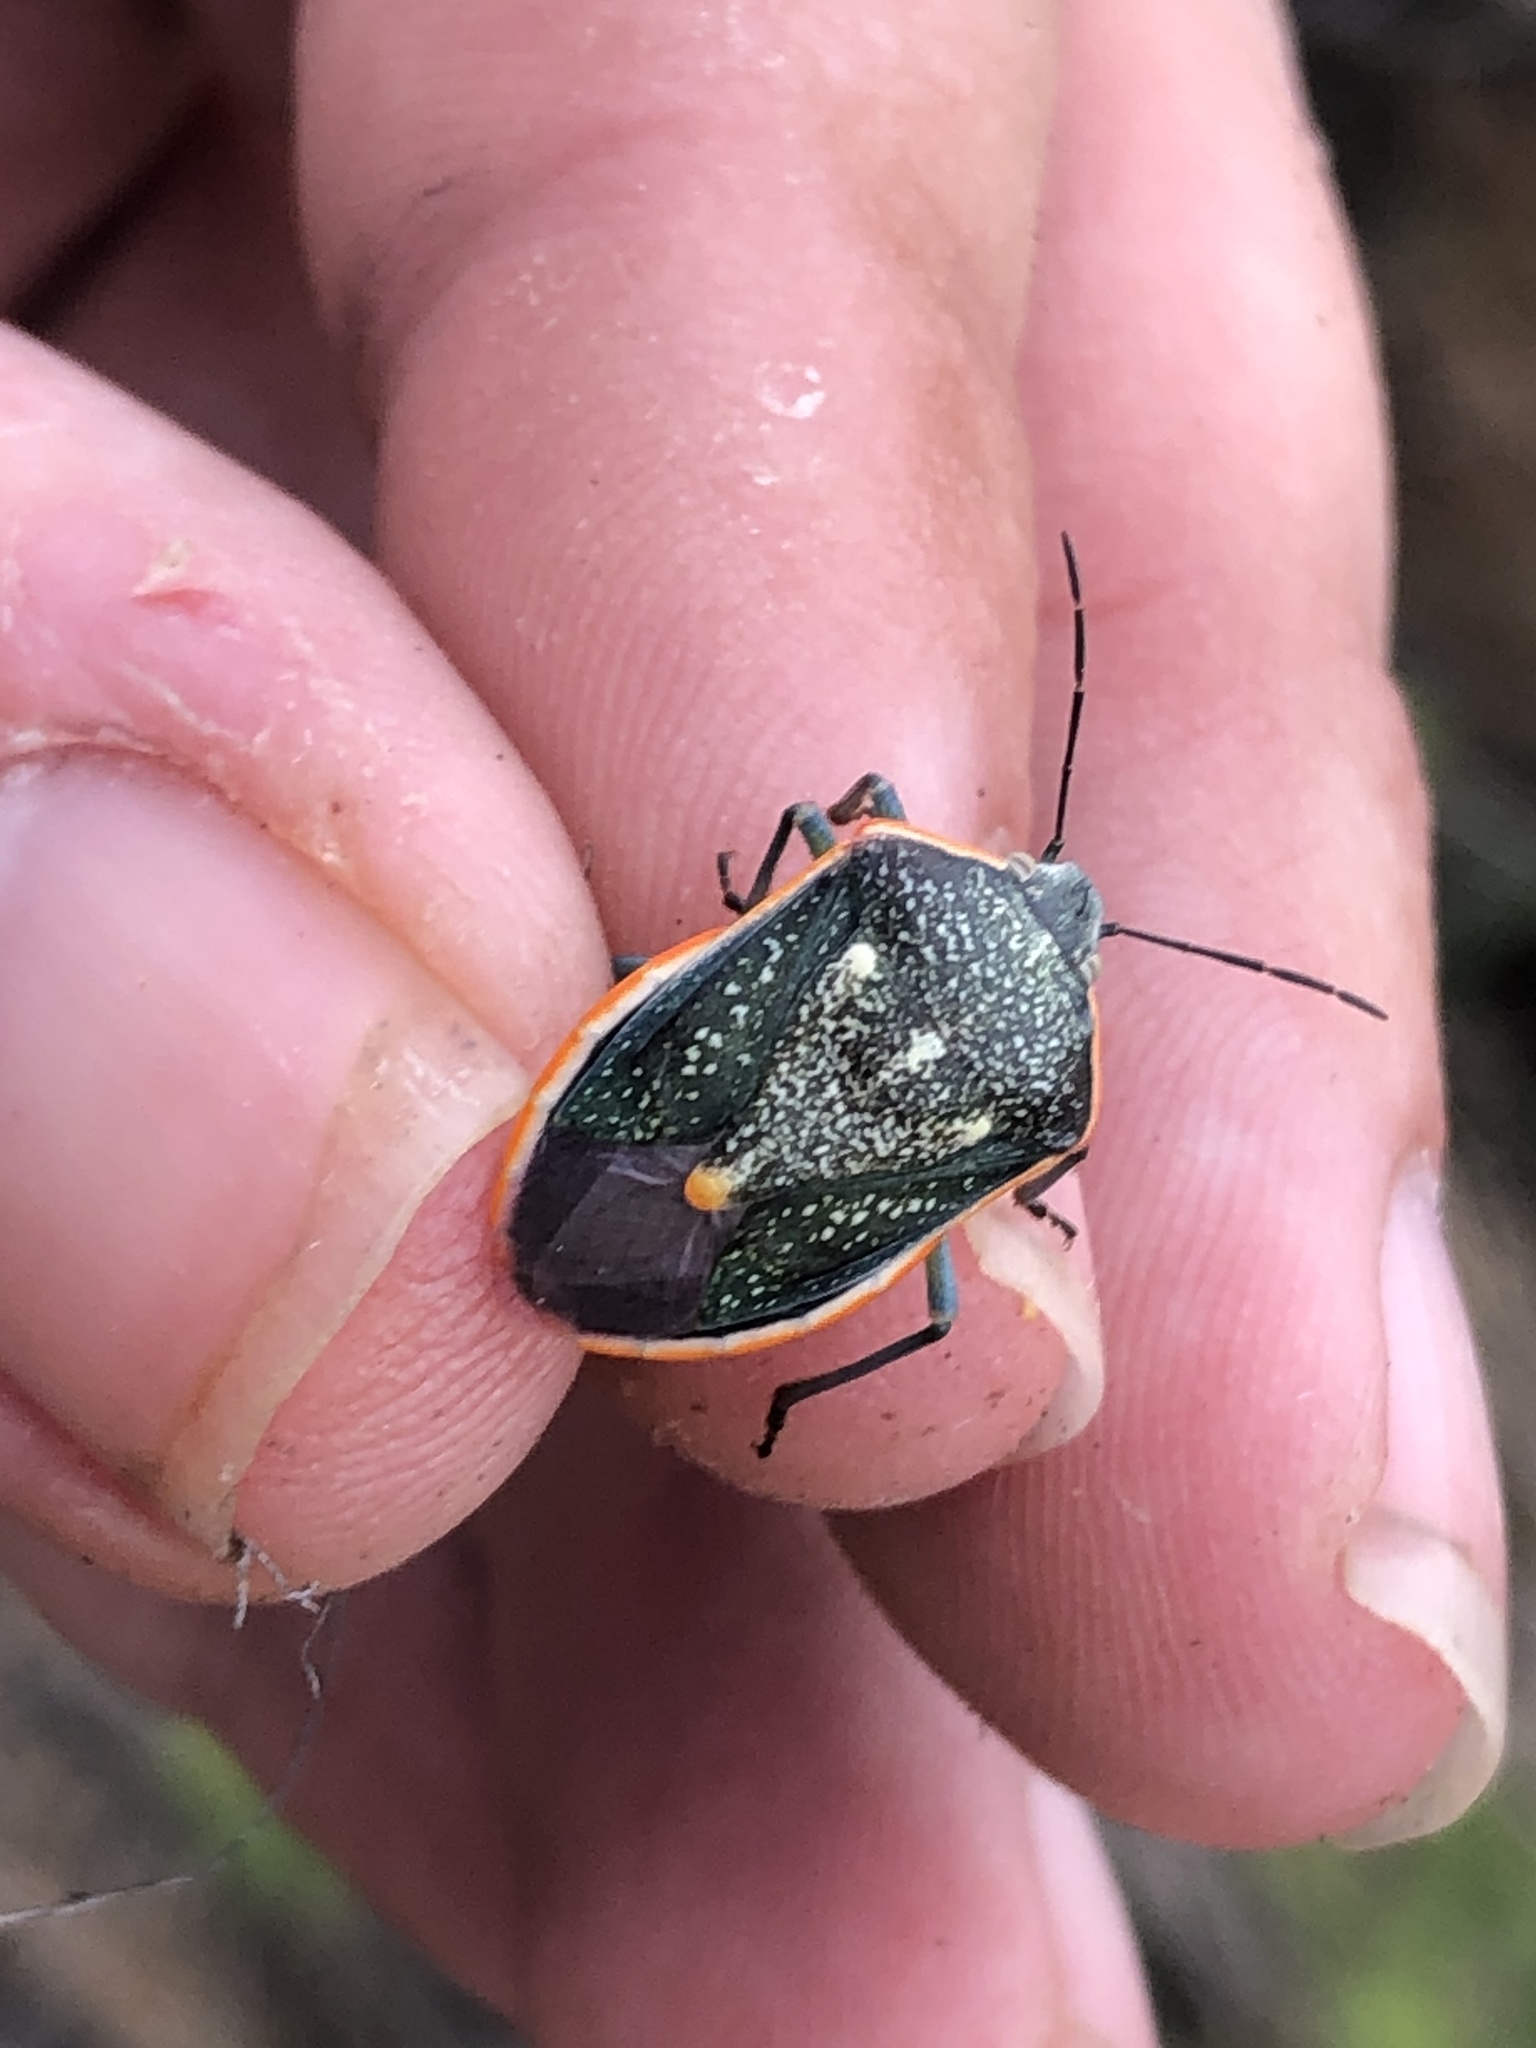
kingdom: Animalia
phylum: Arthropoda
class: Insecta
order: Hemiptera
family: Pentatomidae
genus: Chlorochroa
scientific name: Chlorochroa sayi
